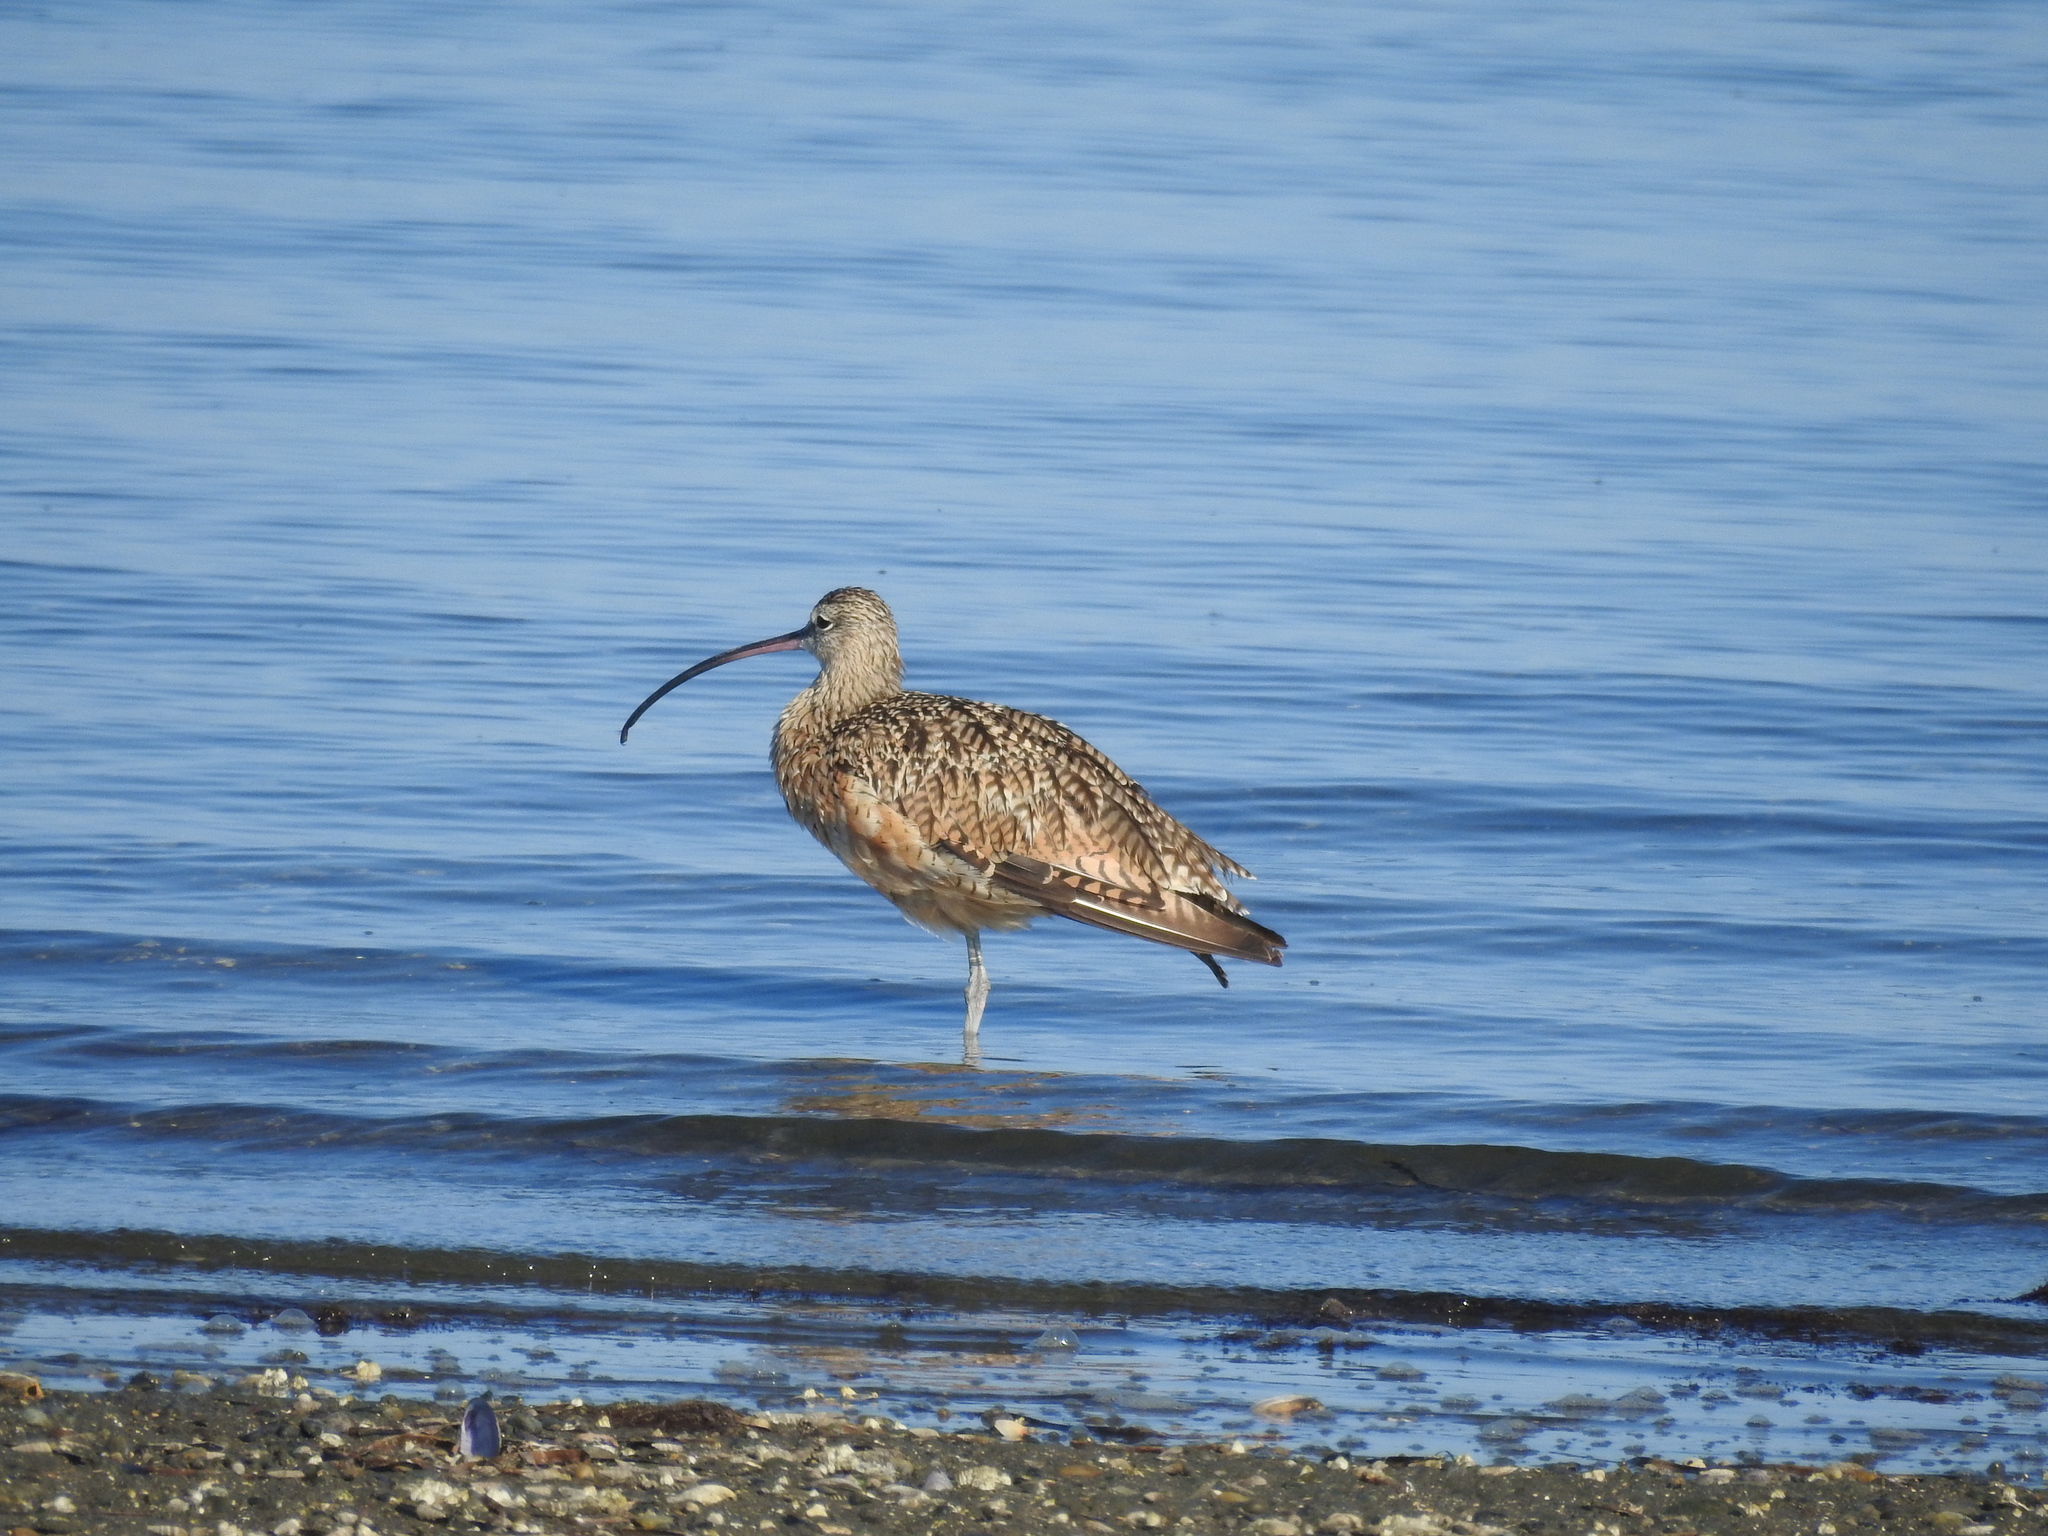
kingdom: Animalia
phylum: Chordata
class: Aves
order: Charadriiformes
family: Scolopacidae
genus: Numenius
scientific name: Numenius americanus
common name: Long-billed curlew
